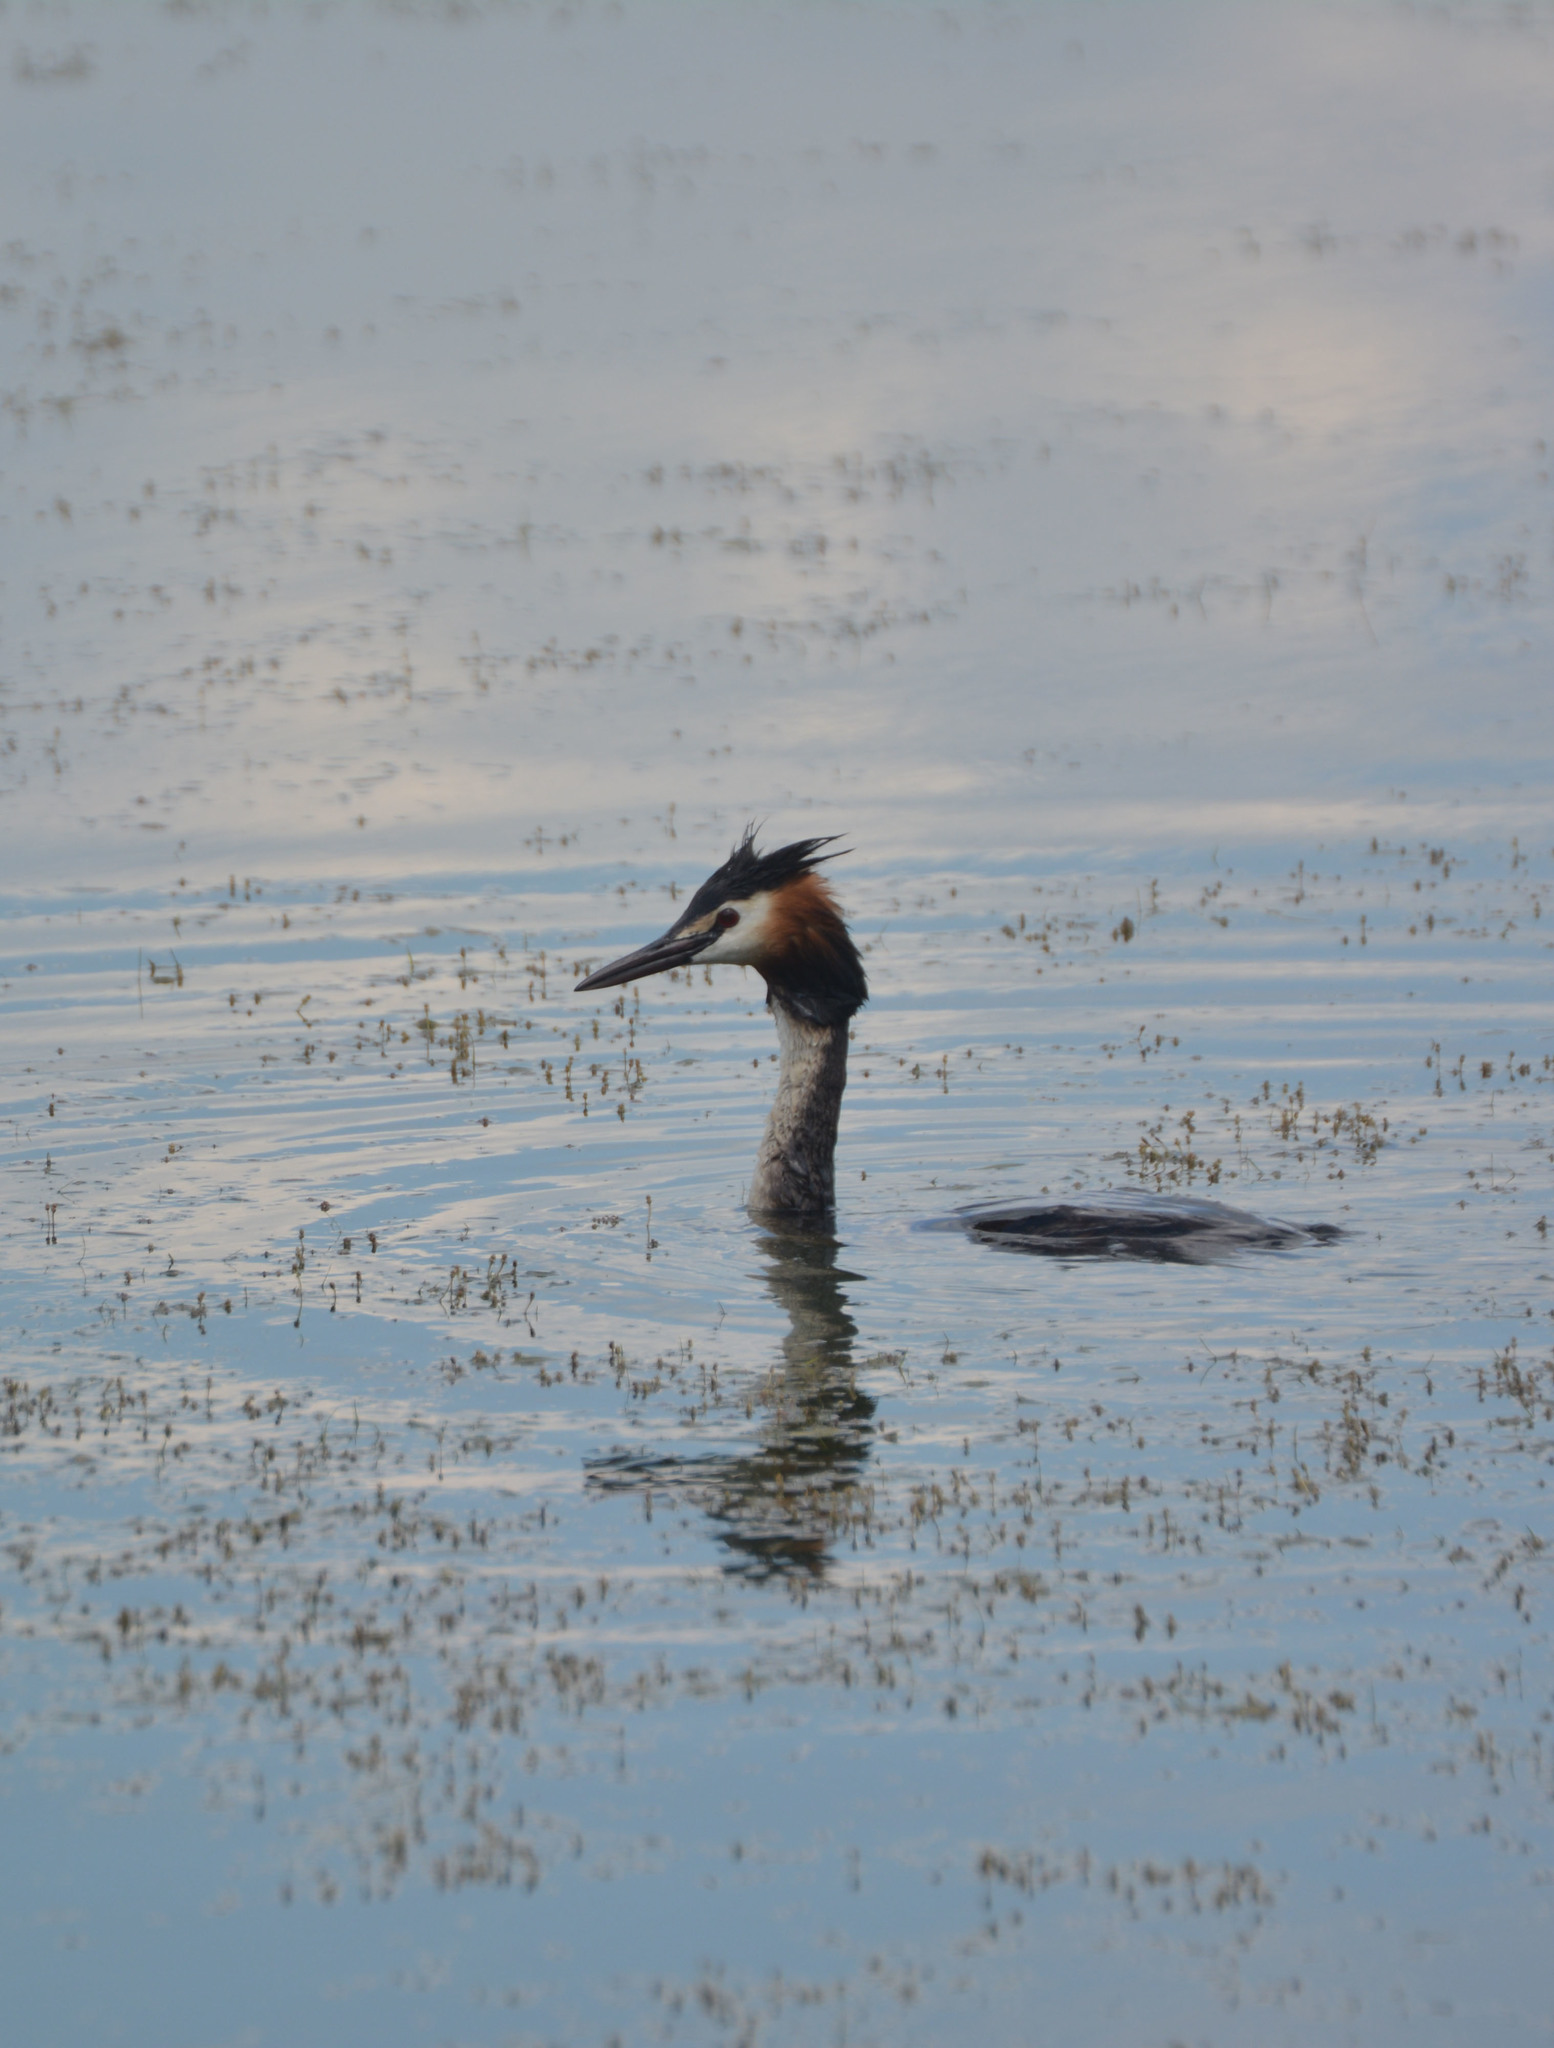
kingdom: Animalia
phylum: Chordata
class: Aves
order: Podicipediformes
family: Podicipedidae
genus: Podiceps
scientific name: Podiceps cristatus
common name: Great crested grebe
